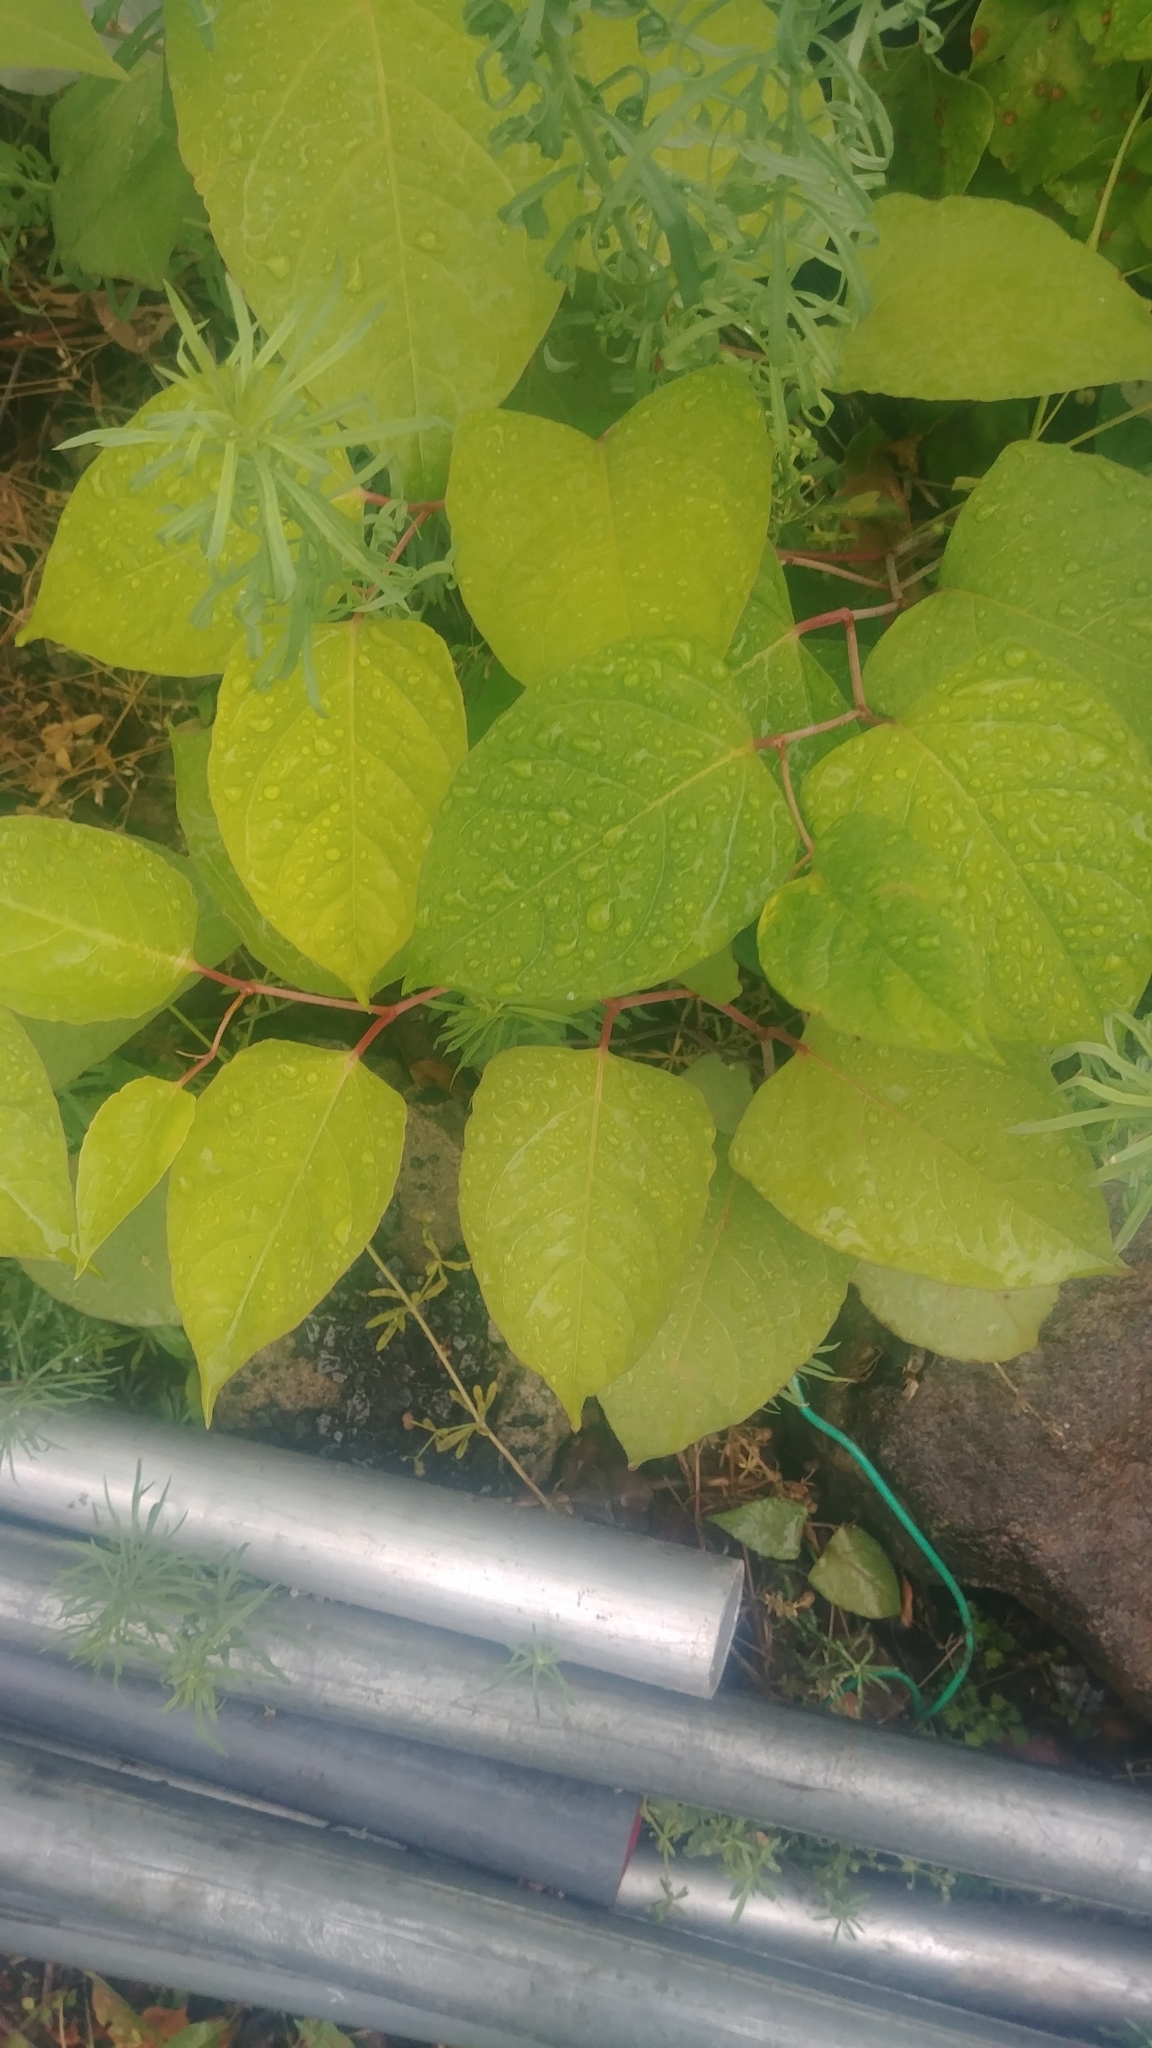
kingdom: Plantae
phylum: Tracheophyta
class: Magnoliopsida
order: Caryophyllales
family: Polygonaceae
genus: Reynoutria
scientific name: Reynoutria japonica
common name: Japanese knotweed
